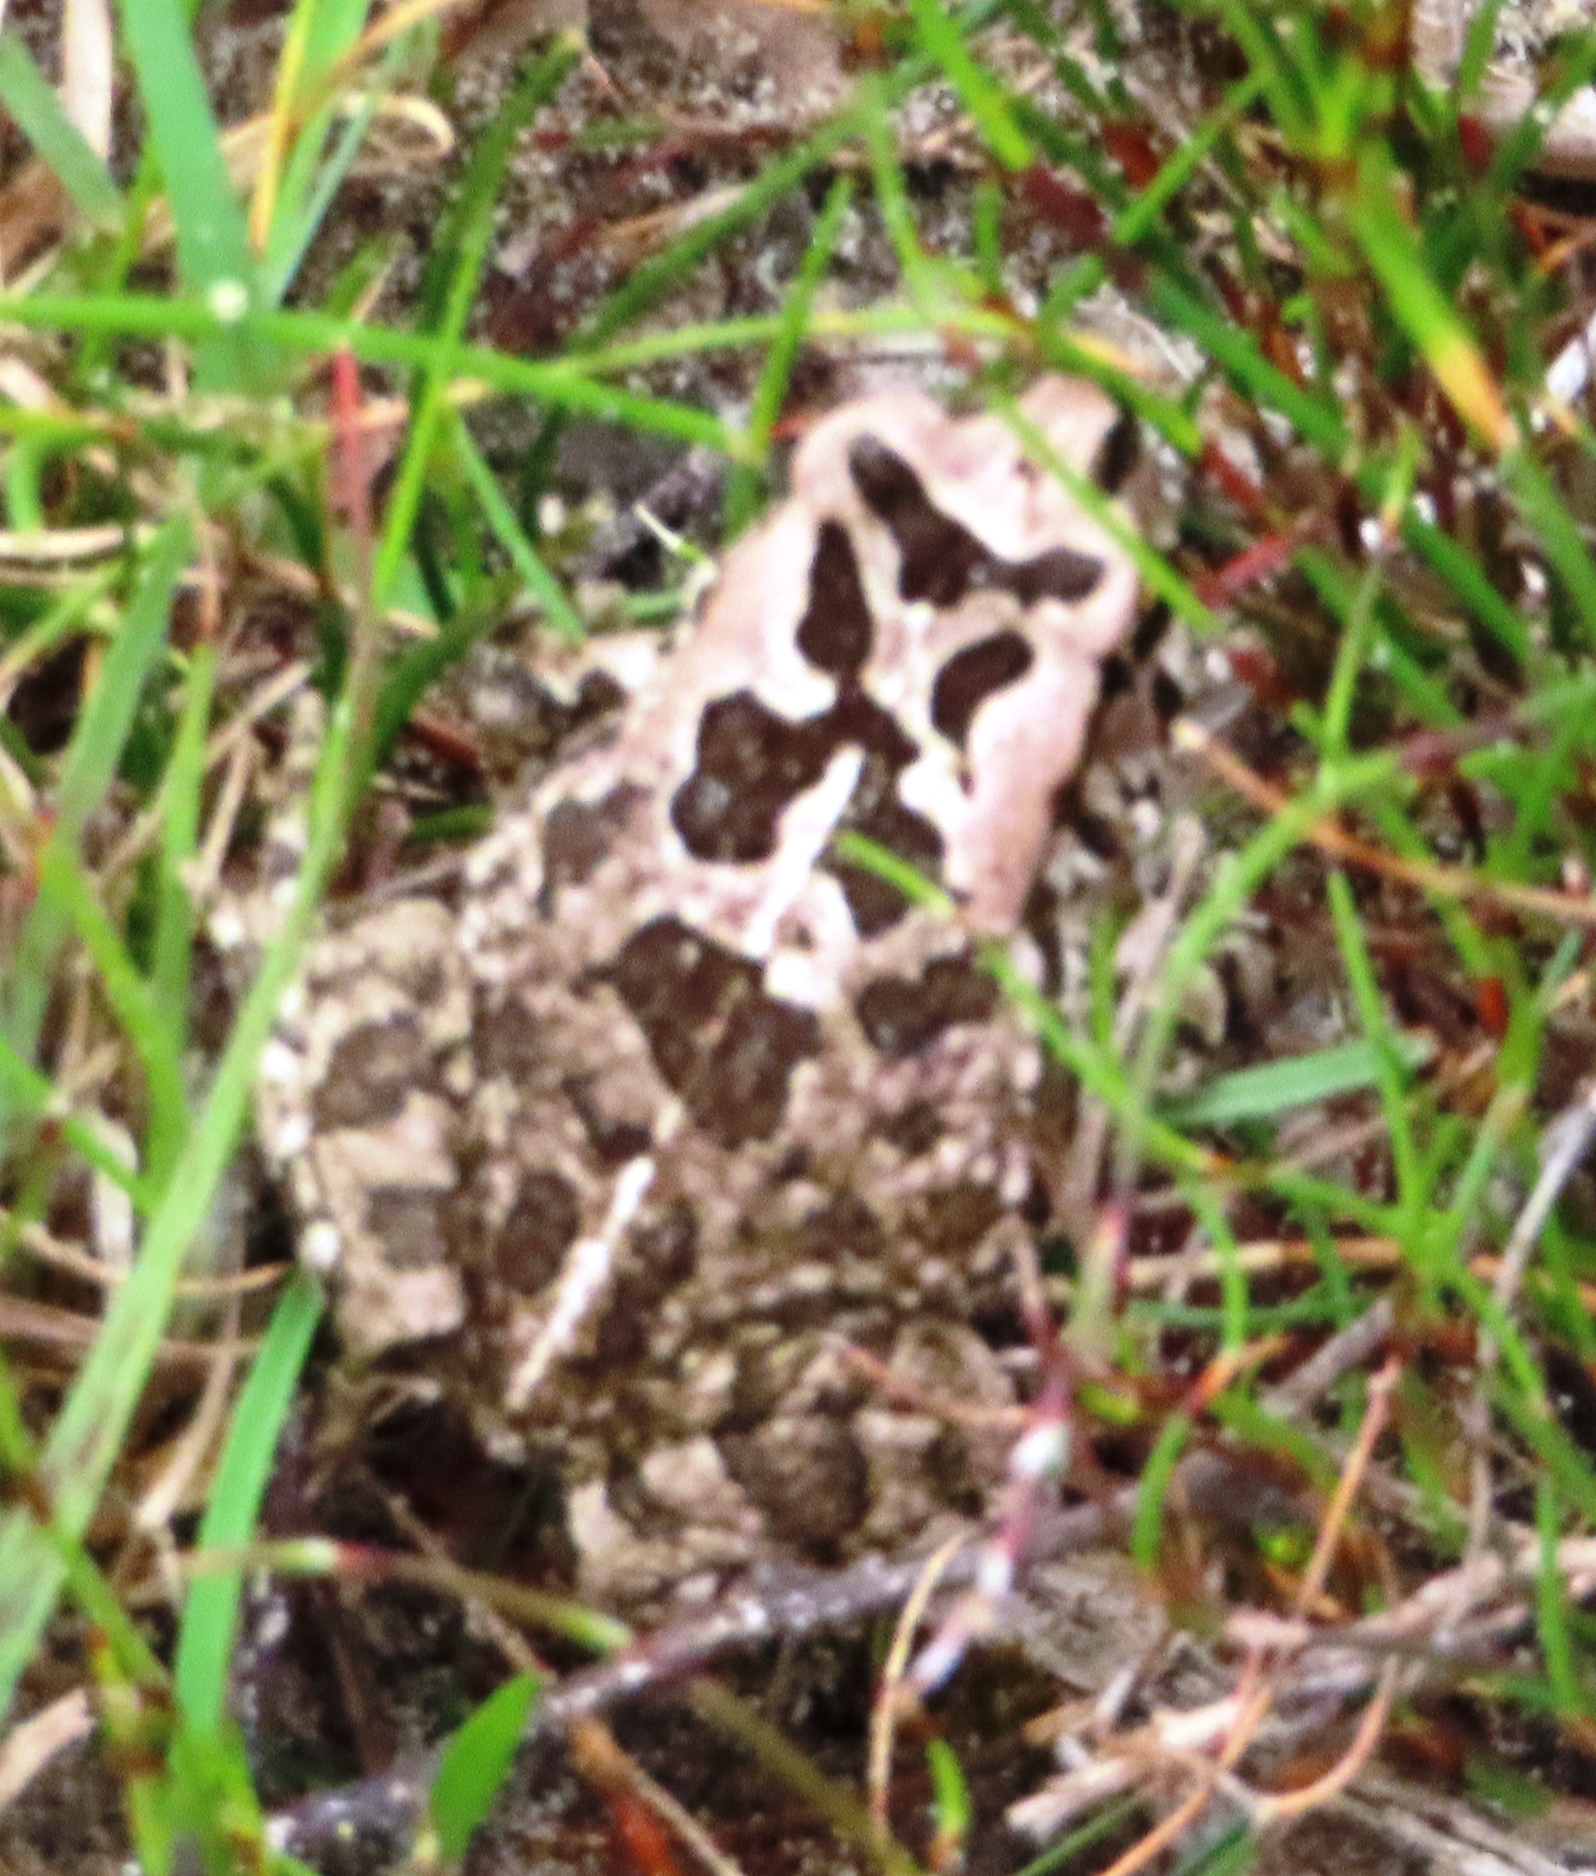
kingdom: Animalia
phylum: Chordata
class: Amphibia
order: Anura
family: Bufonidae
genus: Sclerophrys
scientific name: Sclerophrys capensis
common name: Ranger’s toad
